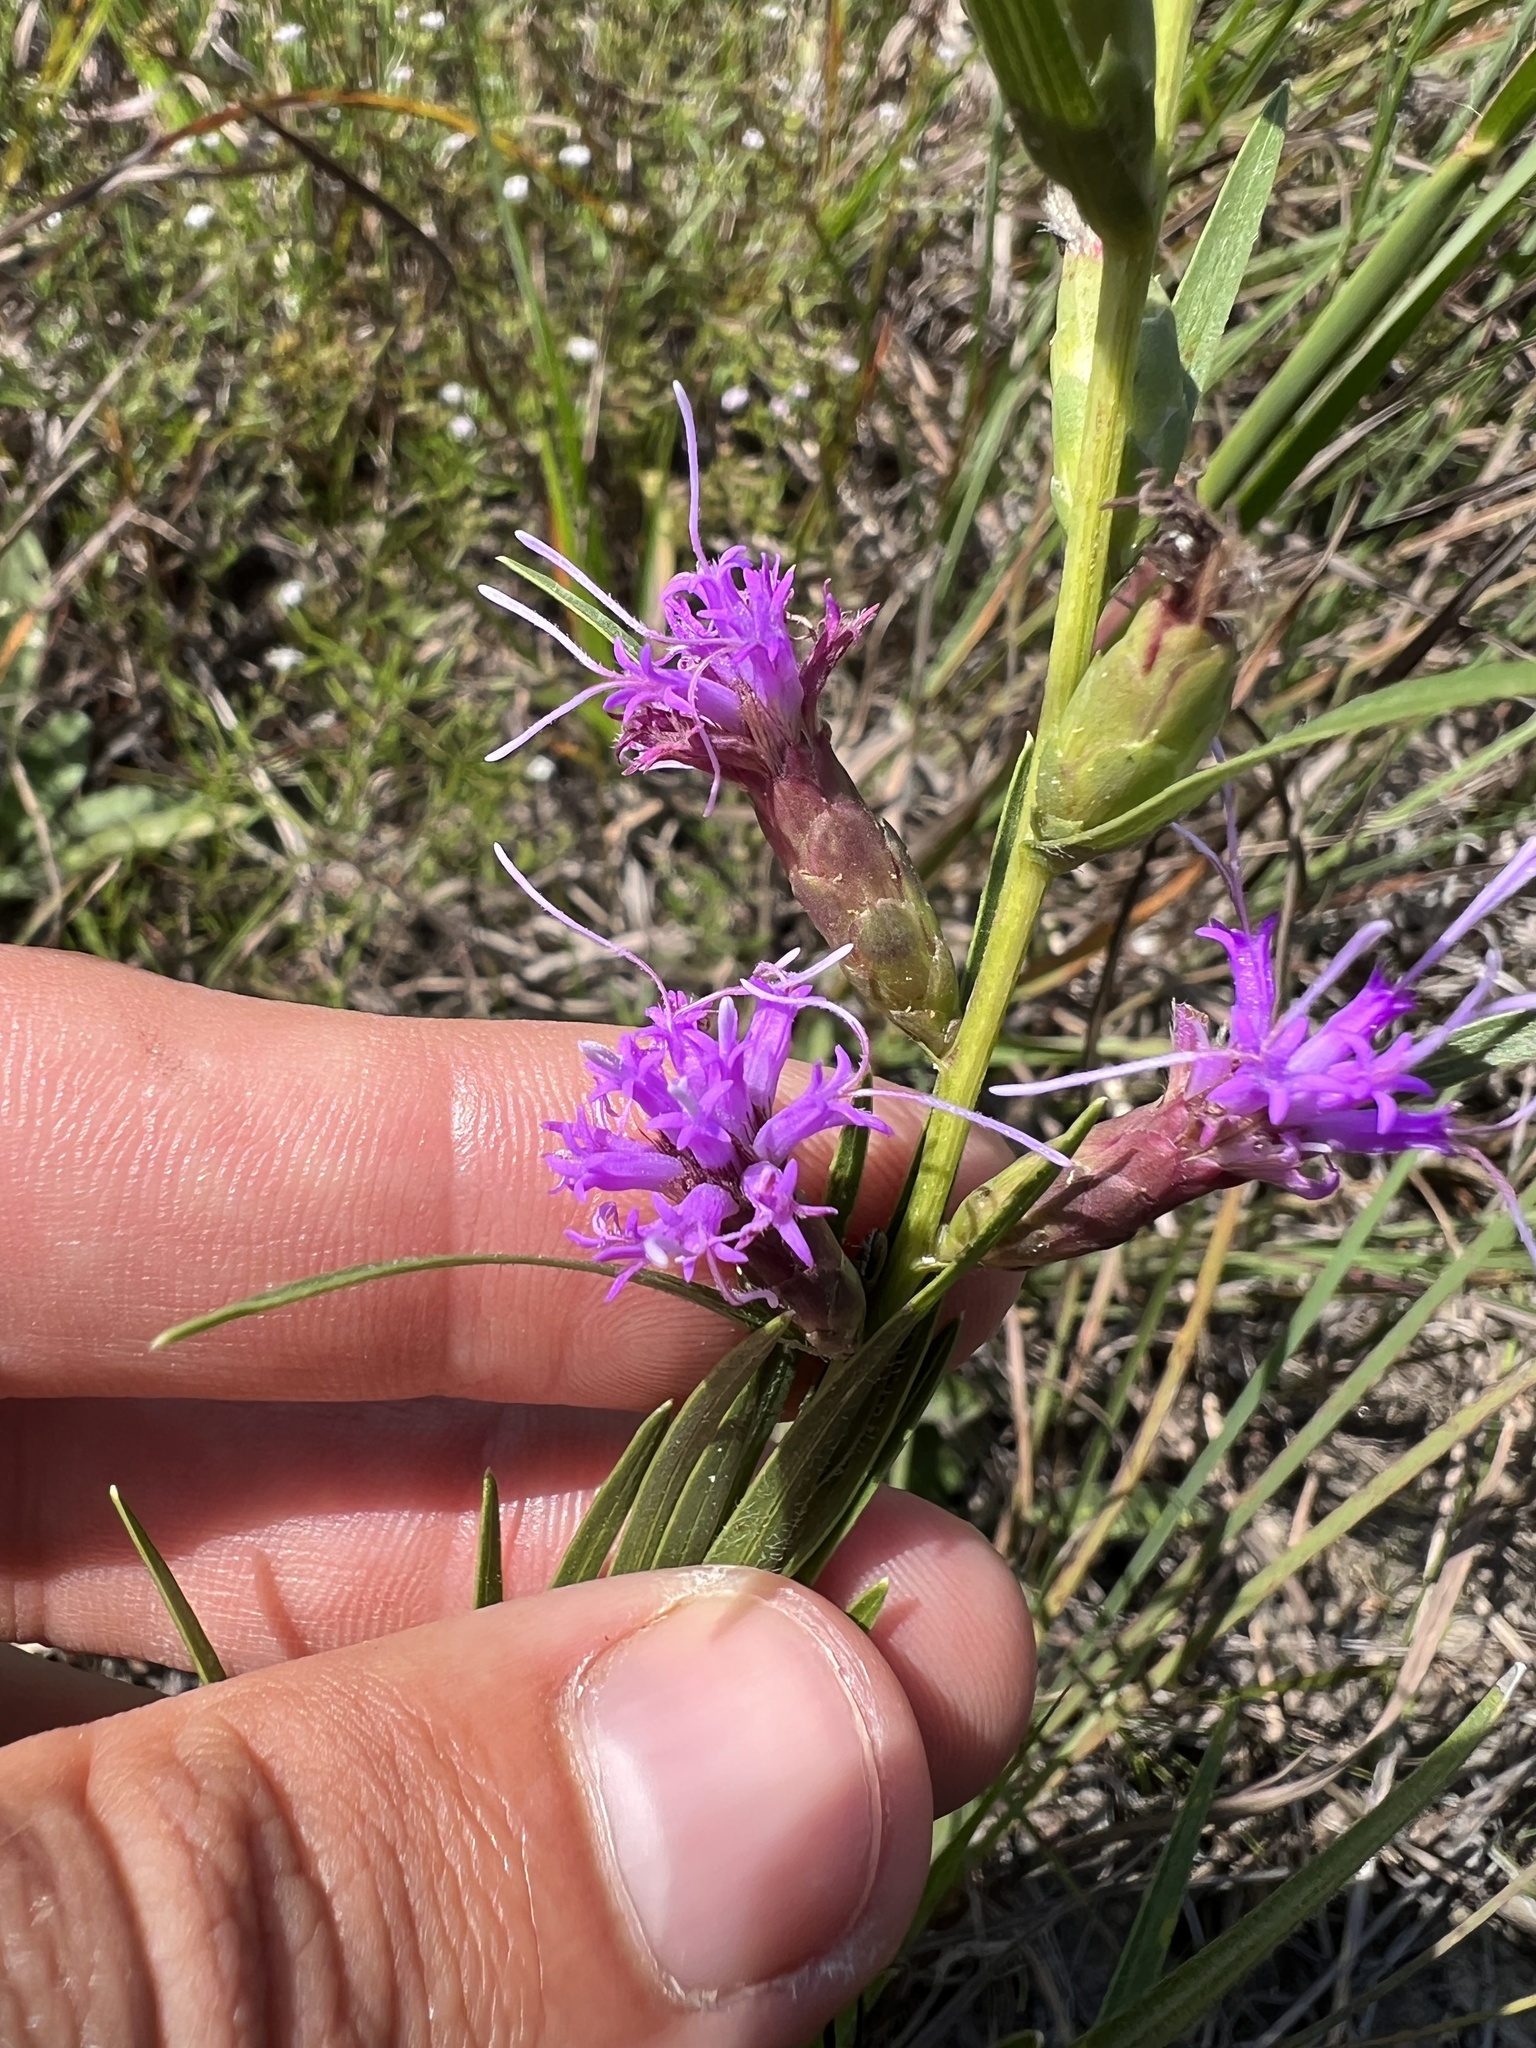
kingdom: Plantae
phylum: Tracheophyta
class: Magnoliopsida
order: Asterales
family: Asteraceae
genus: Liatris
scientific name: Liatris cylindracea
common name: Few-head blazingstar
